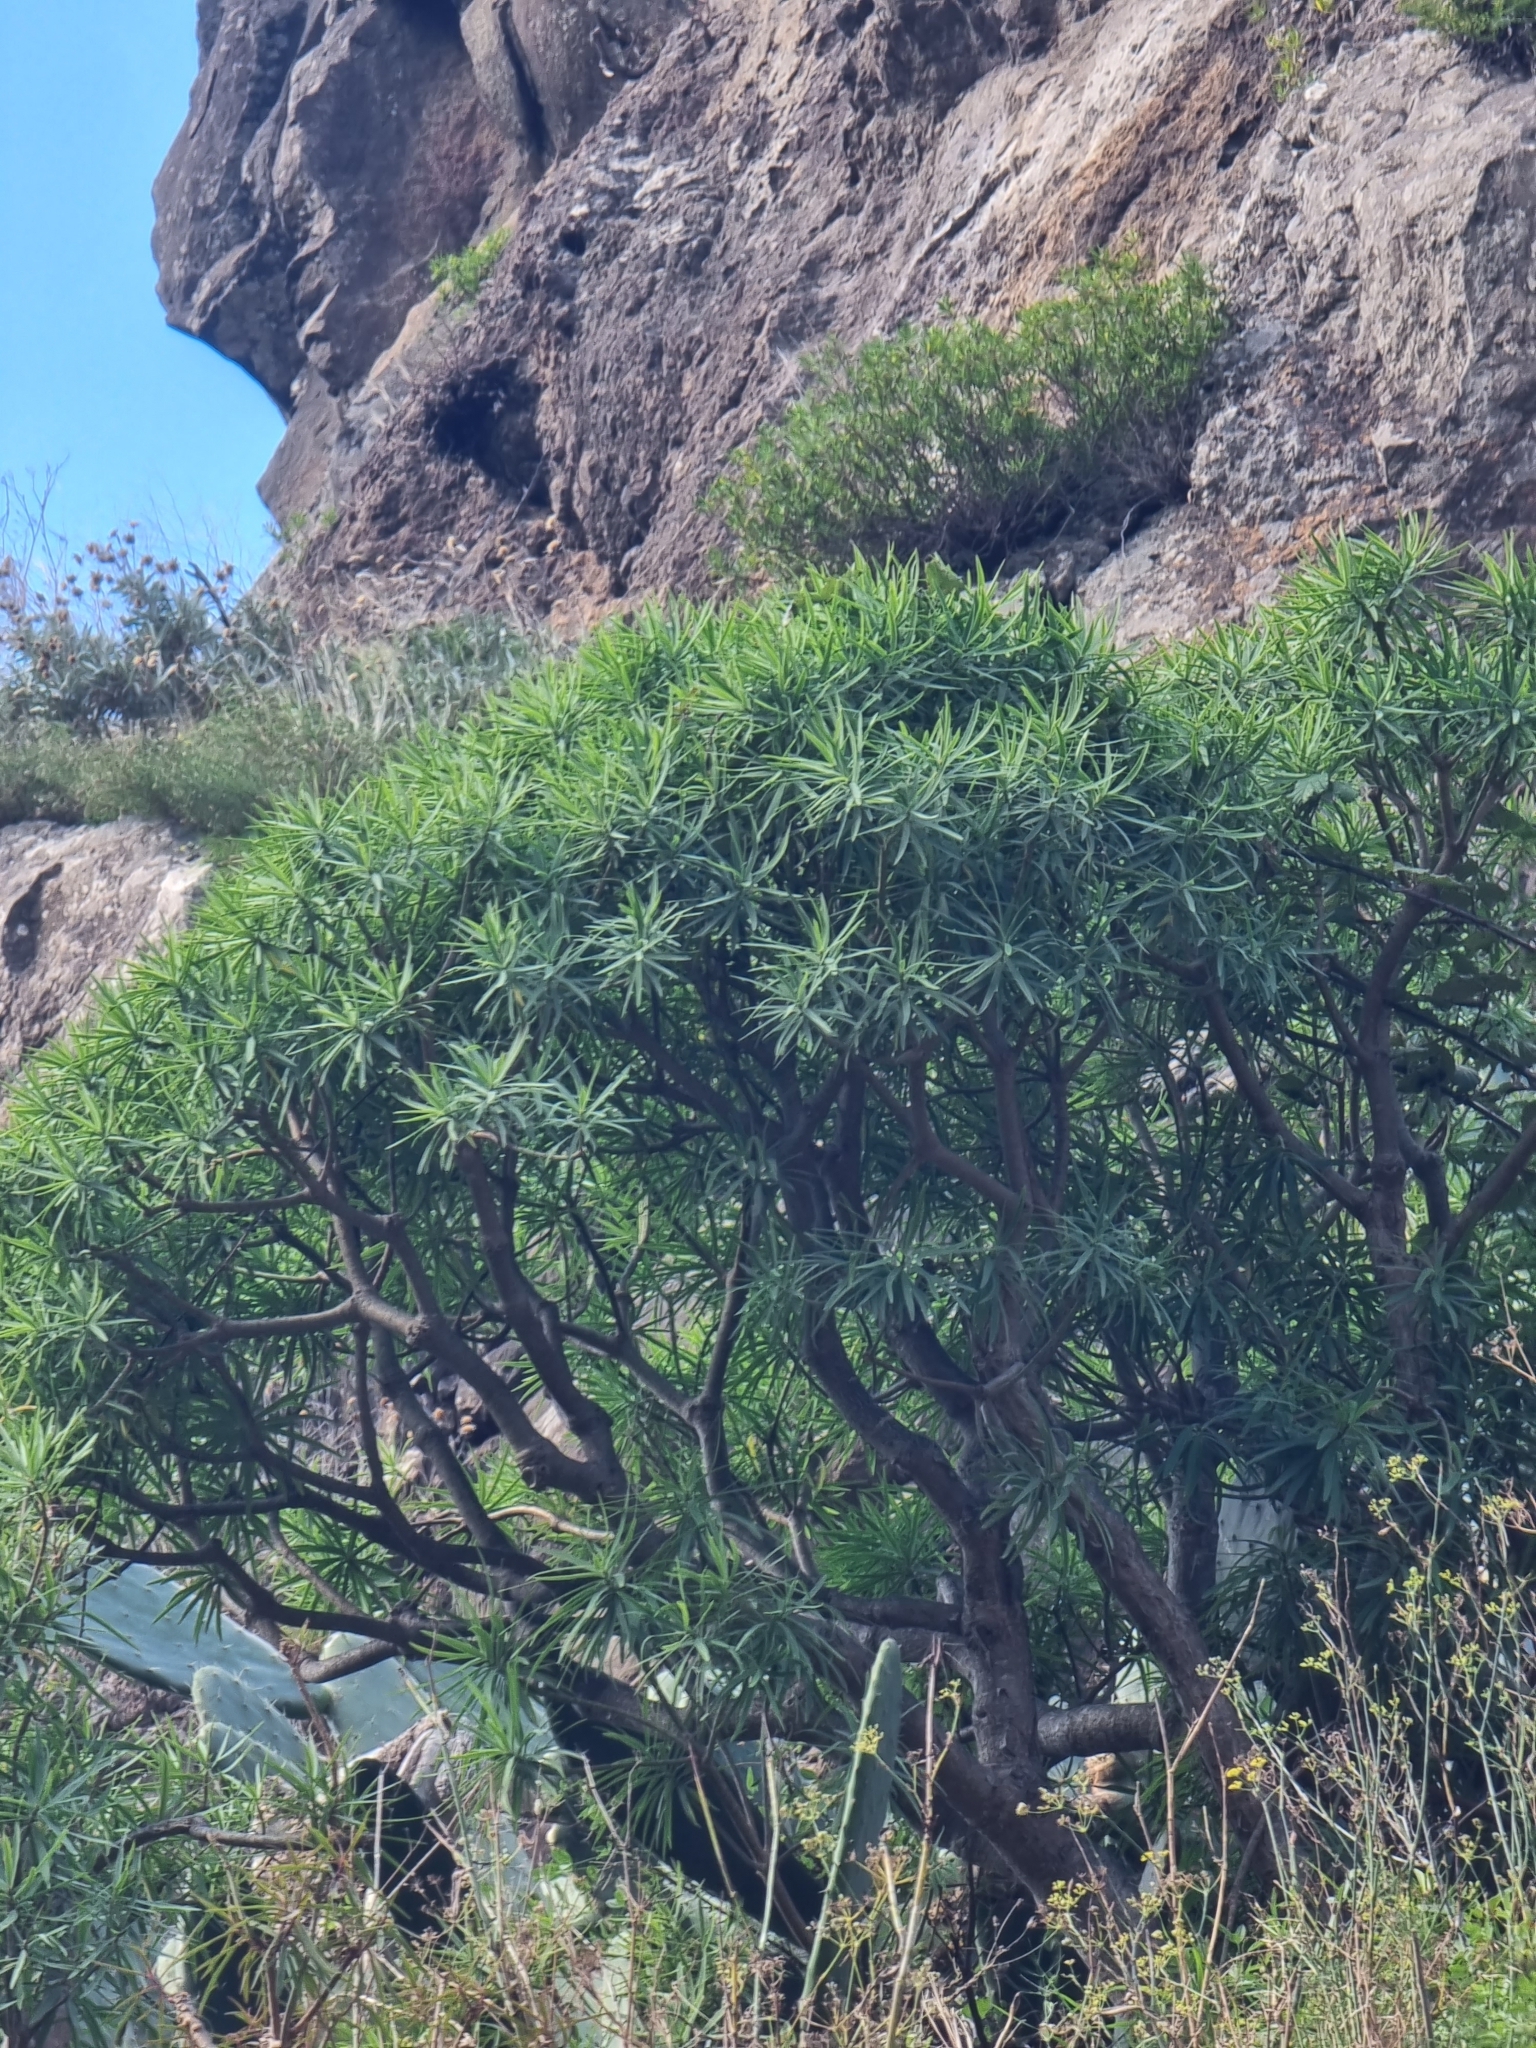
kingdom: Plantae
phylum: Tracheophyta
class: Magnoliopsida
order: Malpighiales
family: Euphorbiaceae
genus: Euphorbia
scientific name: Euphorbia piscatoria
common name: Fish-stunning spurge
